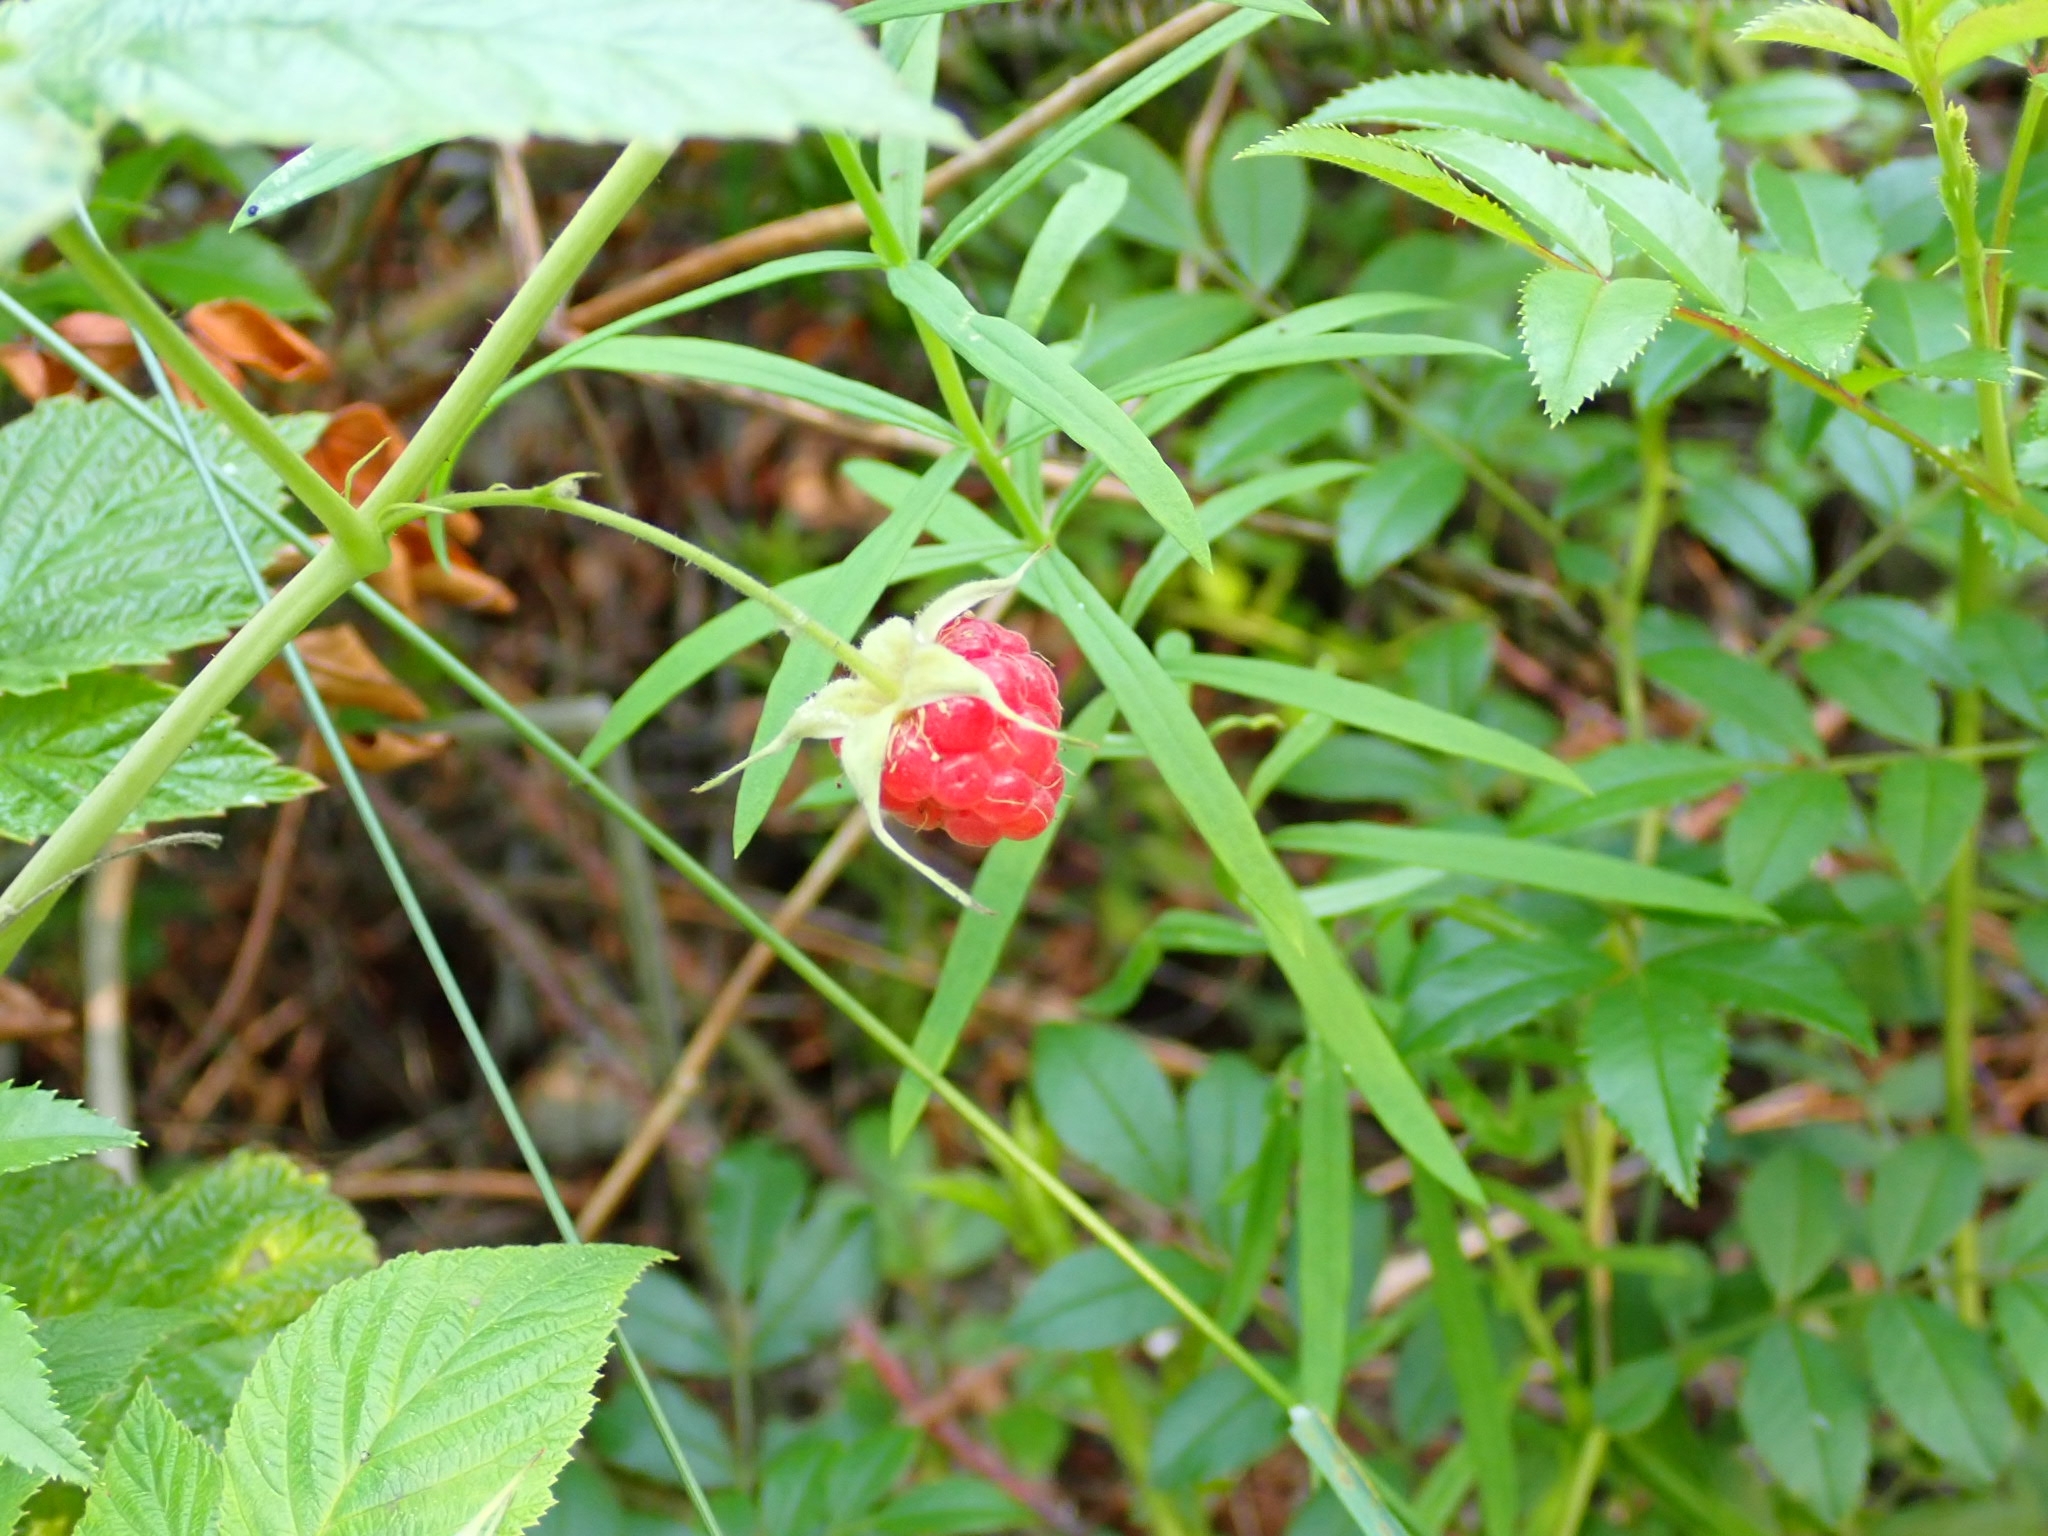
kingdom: Plantae
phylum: Tracheophyta
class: Magnoliopsida
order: Rosales
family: Rosaceae
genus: Rubus
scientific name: Rubus idaeus
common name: Raspberry
